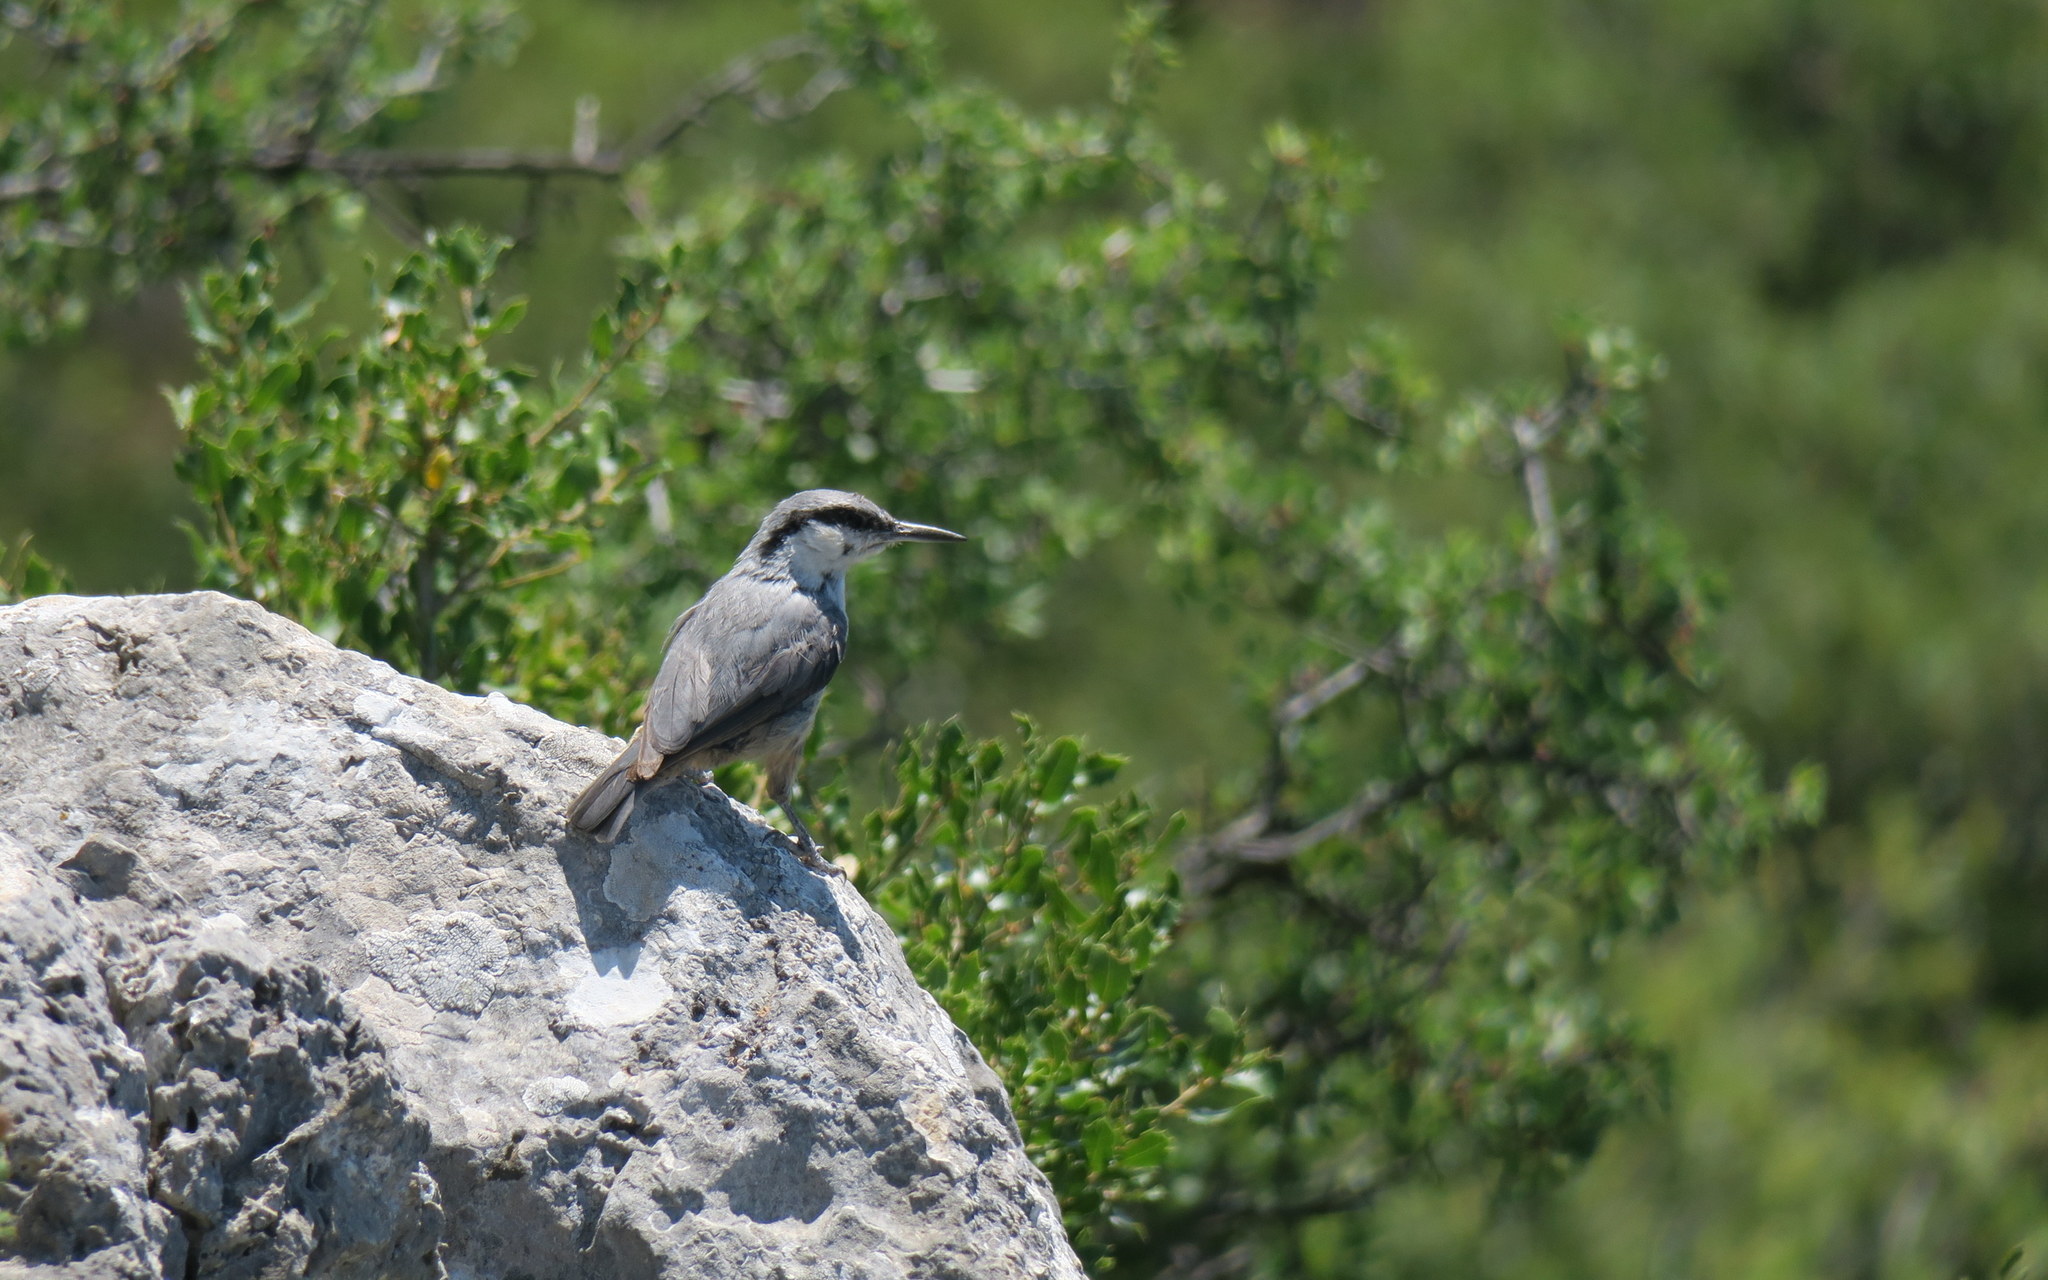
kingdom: Animalia
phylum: Chordata
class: Aves
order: Passeriformes
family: Sittidae
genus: Sitta
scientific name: Sitta neumayer
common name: Western rock nuthatch
